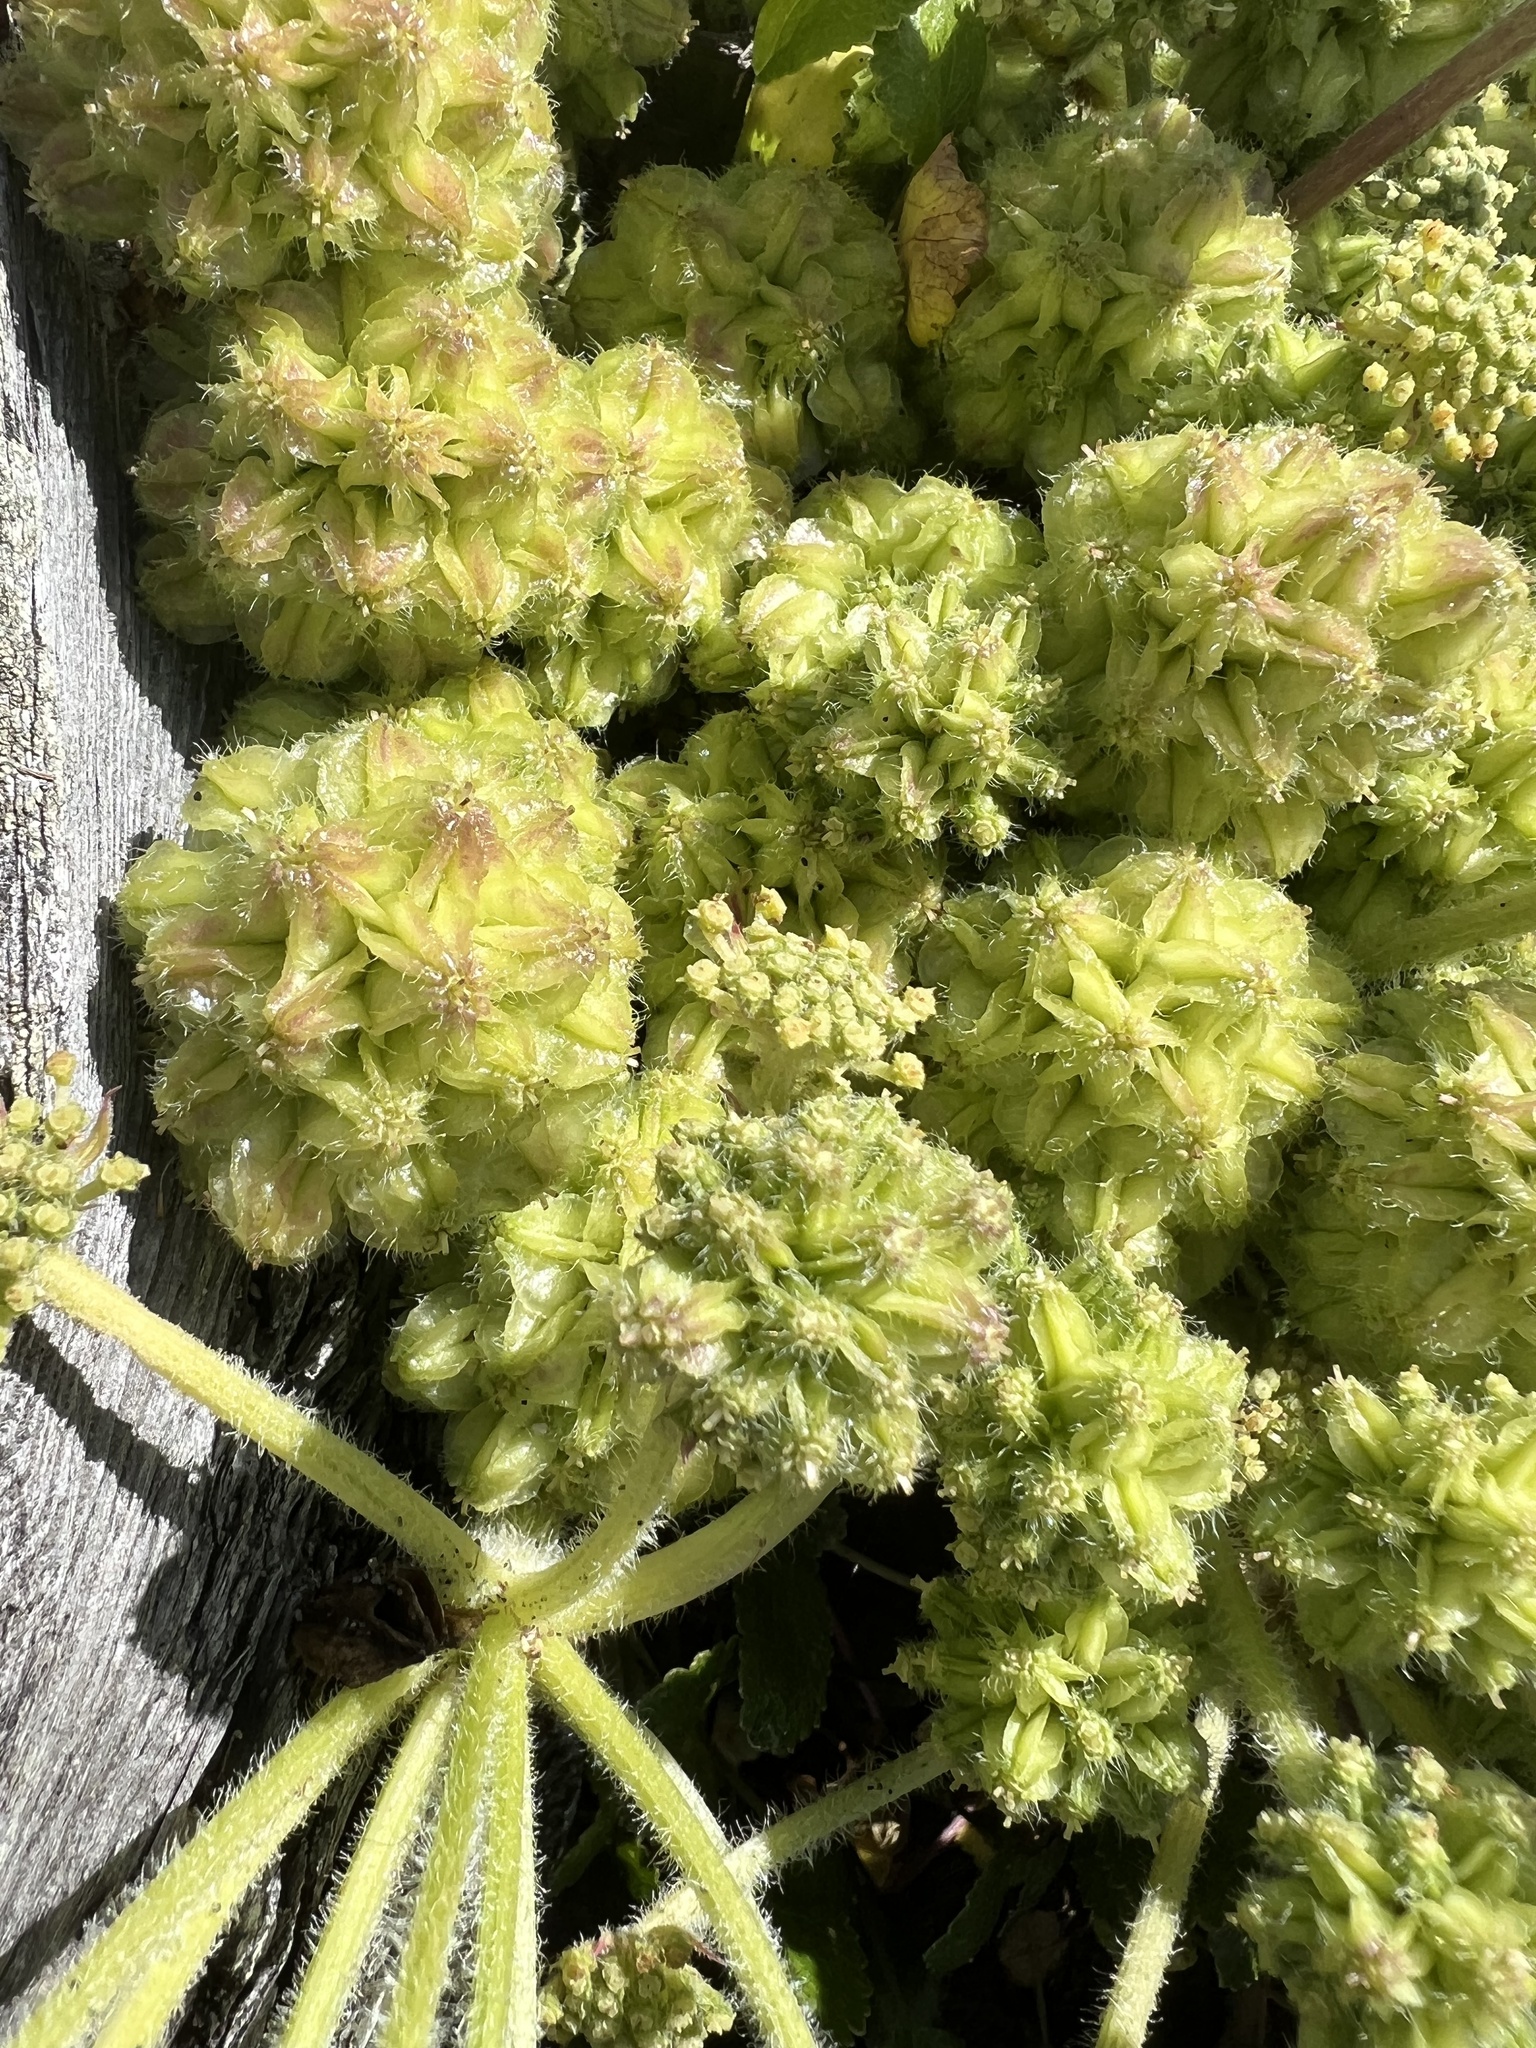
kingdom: Plantae
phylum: Tracheophyta
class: Magnoliopsida
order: Apiales
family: Apiaceae
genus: Angelica
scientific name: Angelica leiocarpa
